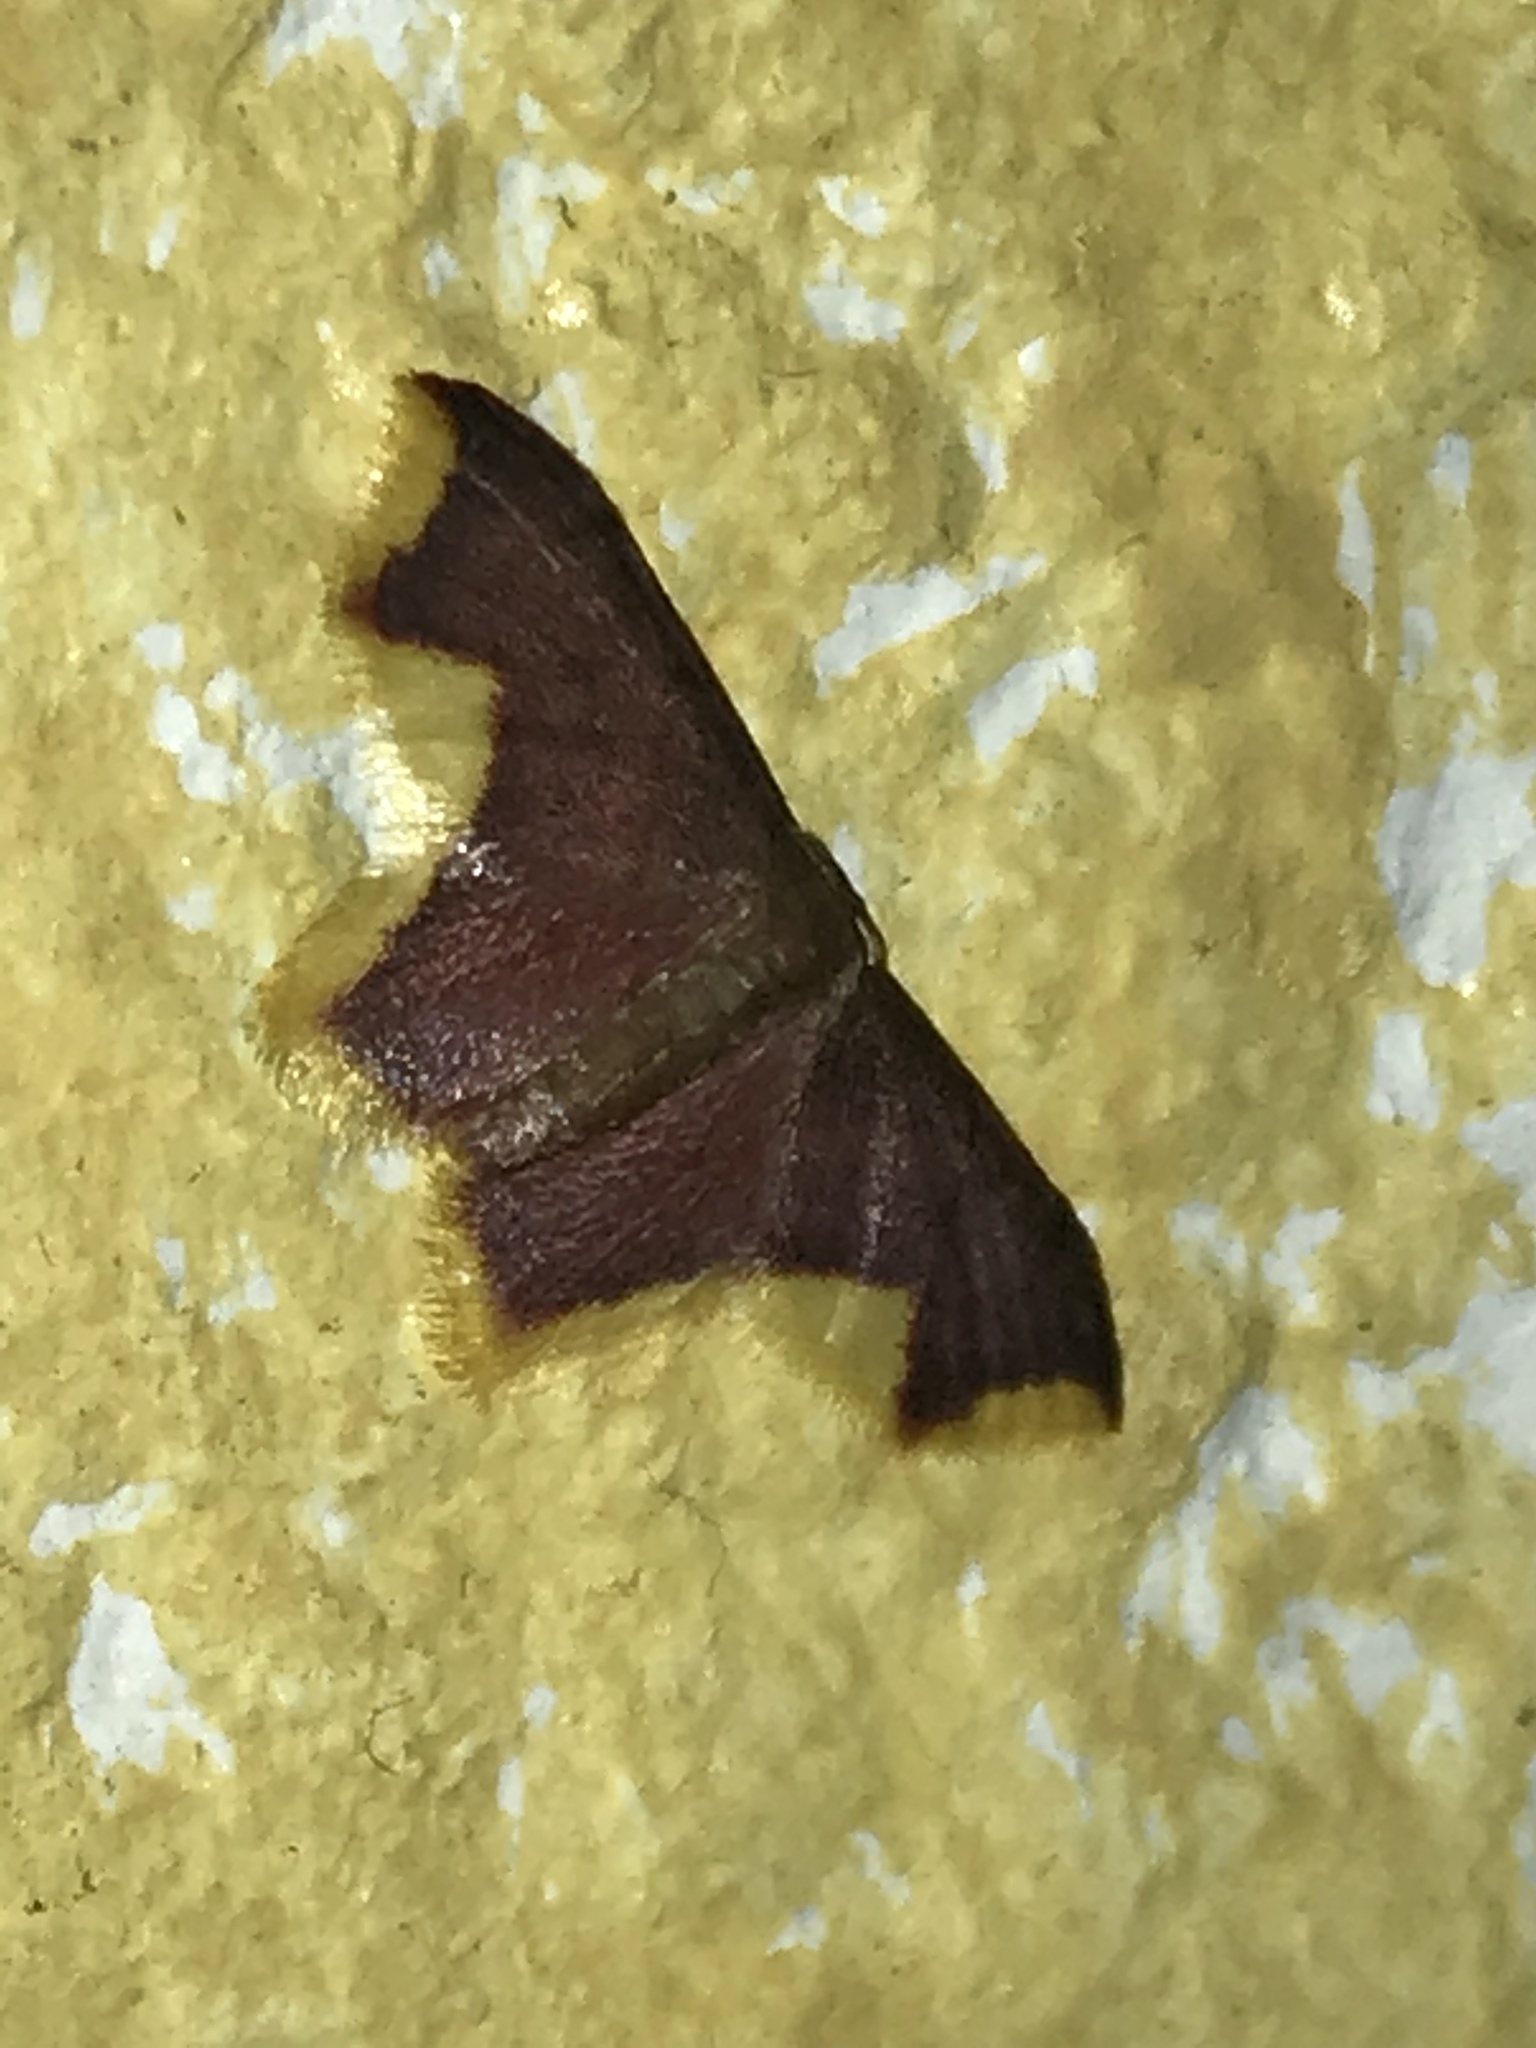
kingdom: Animalia
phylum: Arthropoda
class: Insecta
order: Lepidoptera
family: Geometridae
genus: Lophosis
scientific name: Lophosis labeculata
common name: Stained lophosis moth
